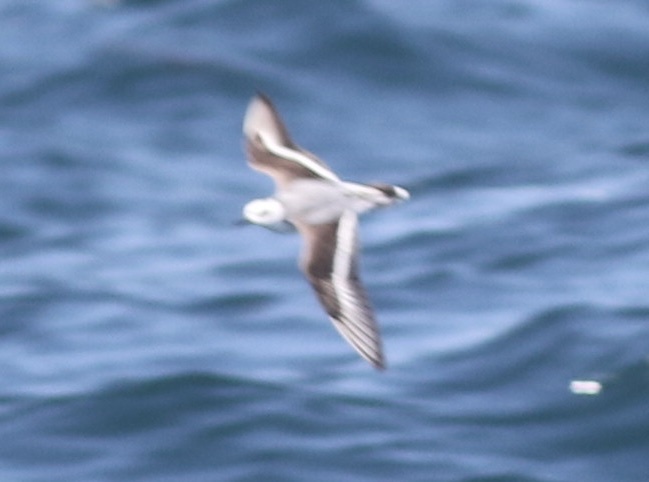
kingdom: Animalia
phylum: Chordata
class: Aves
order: Charadriiformes
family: Scolopacidae
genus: Phalaropus
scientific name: Phalaropus fulicarius
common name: Red phalarope
